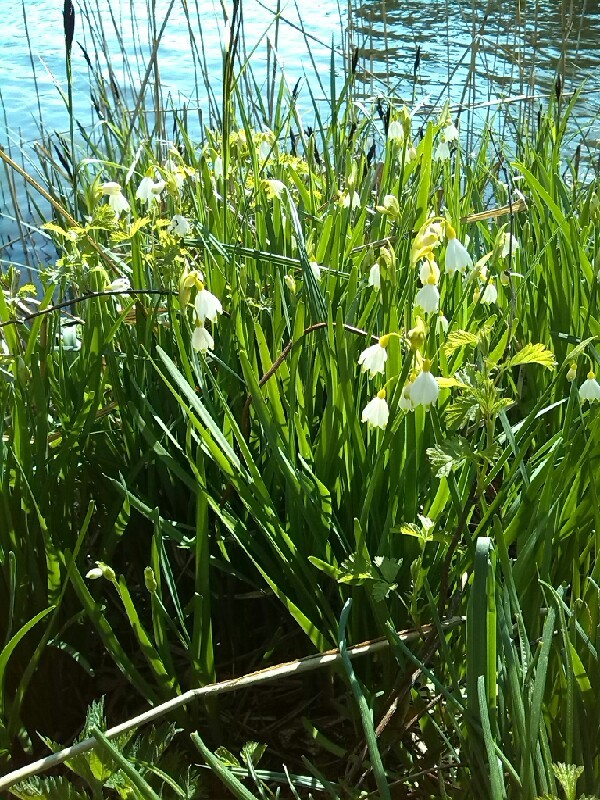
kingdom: Plantae
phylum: Tracheophyta
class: Liliopsida
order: Asparagales
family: Amaryllidaceae
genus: Leucojum
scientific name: Leucojum aestivum
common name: Summer snowflake
